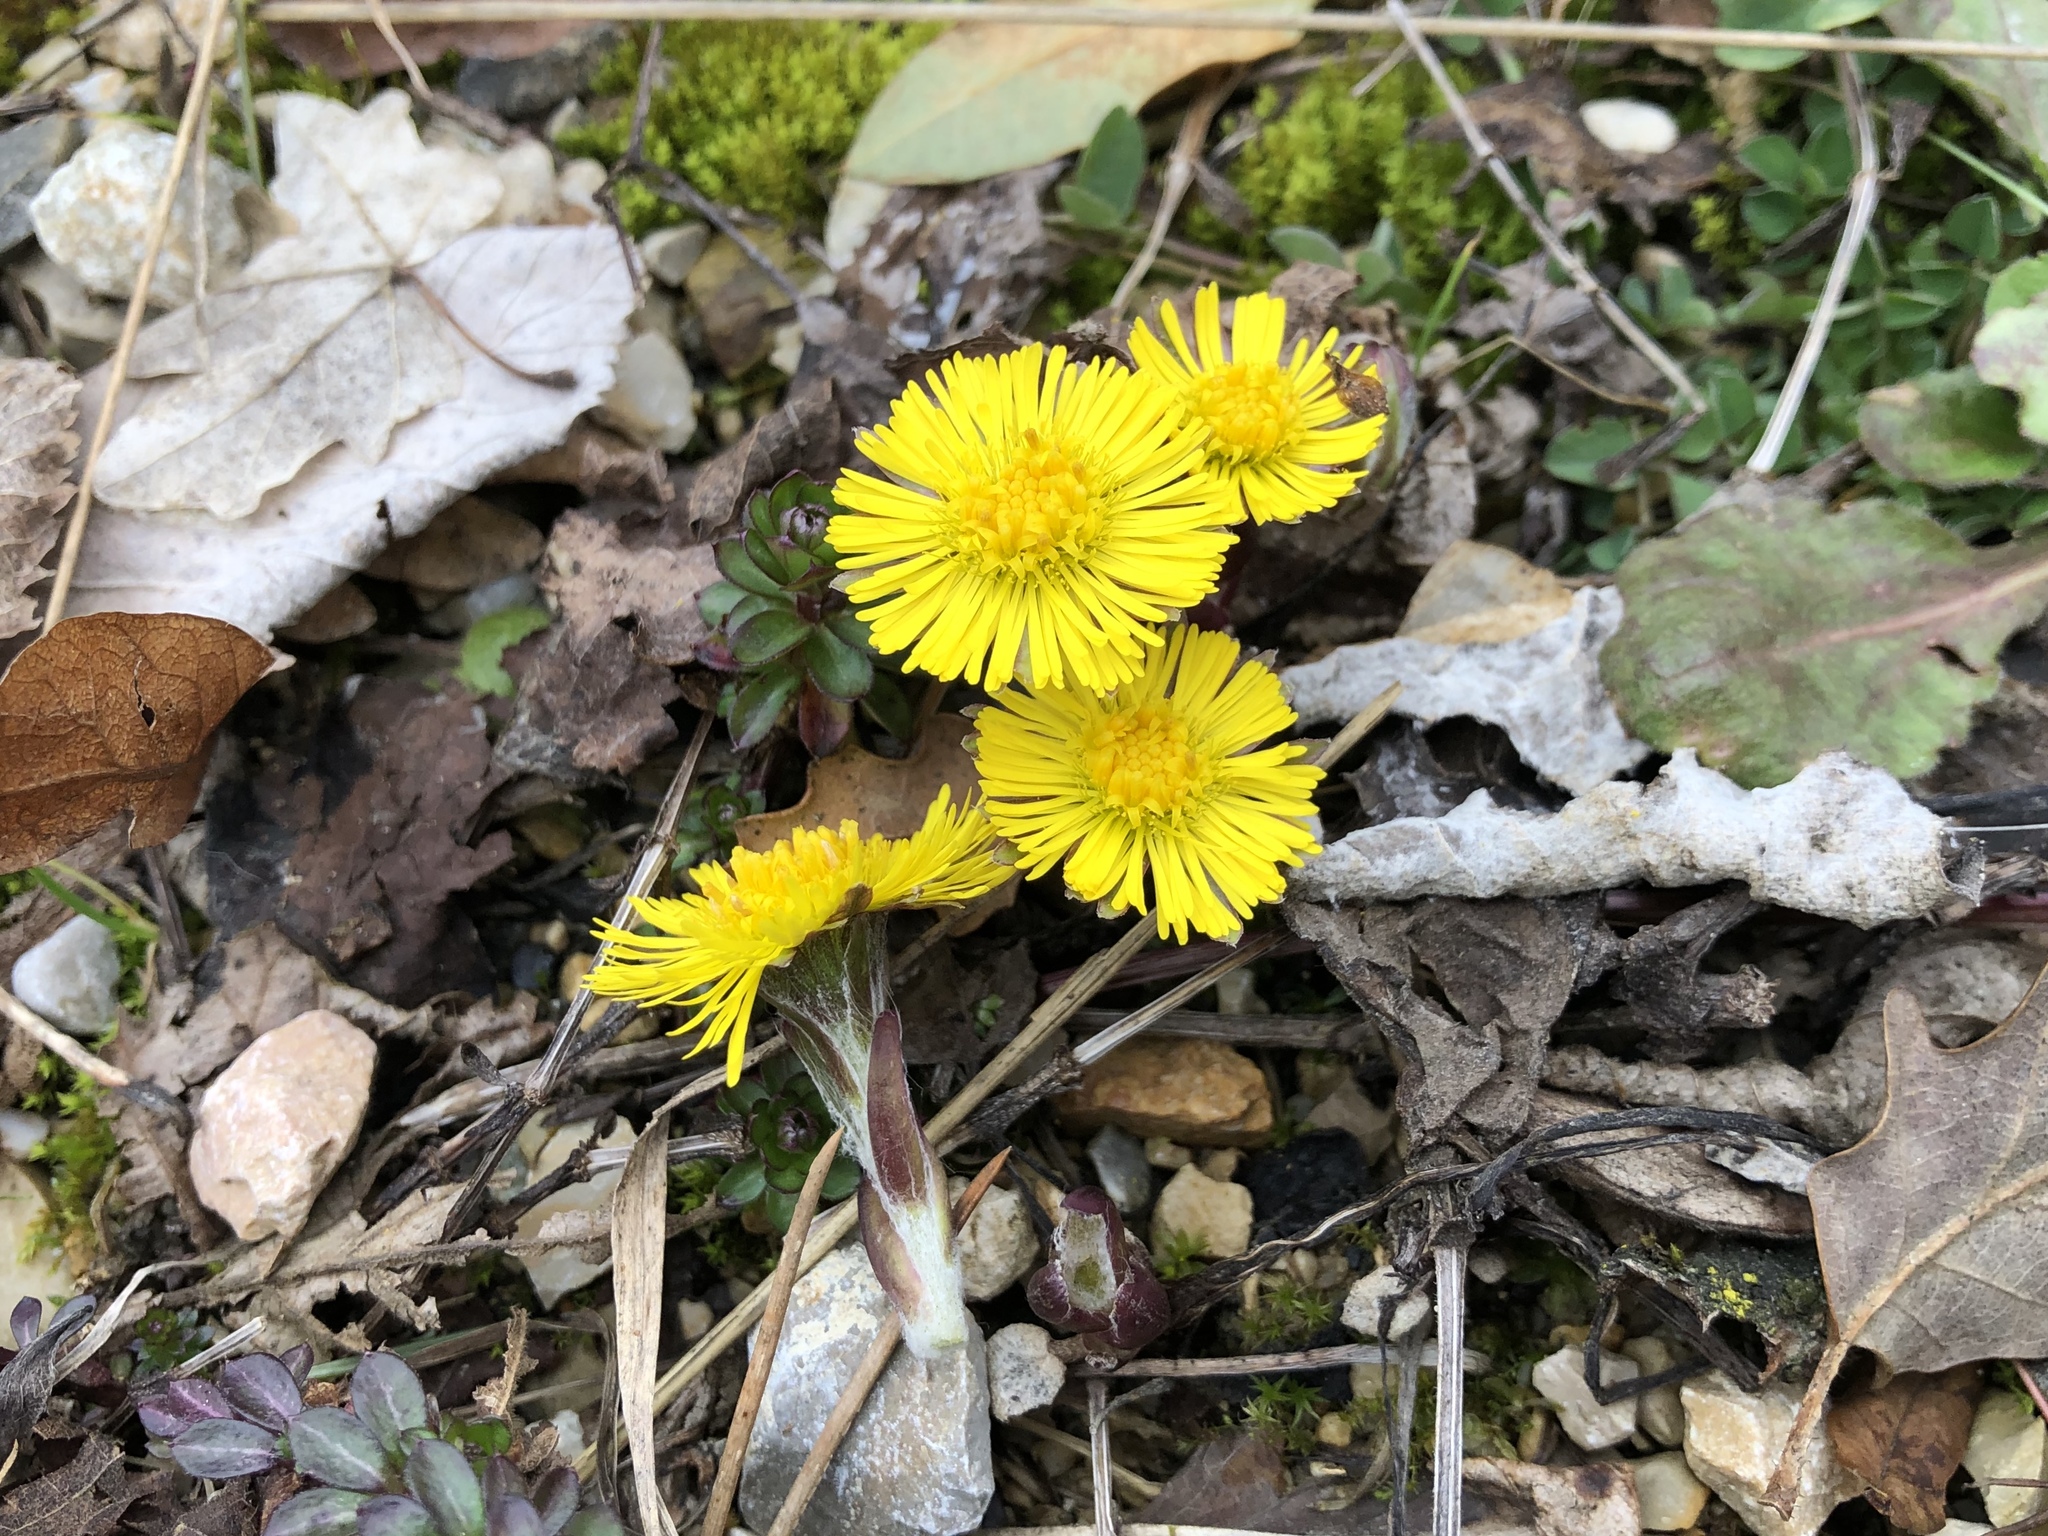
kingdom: Plantae
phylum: Tracheophyta
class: Magnoliopsida
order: Asterales
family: Asteraceae
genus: Tussilago
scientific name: Tussilago farfara
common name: Coltsfoot
